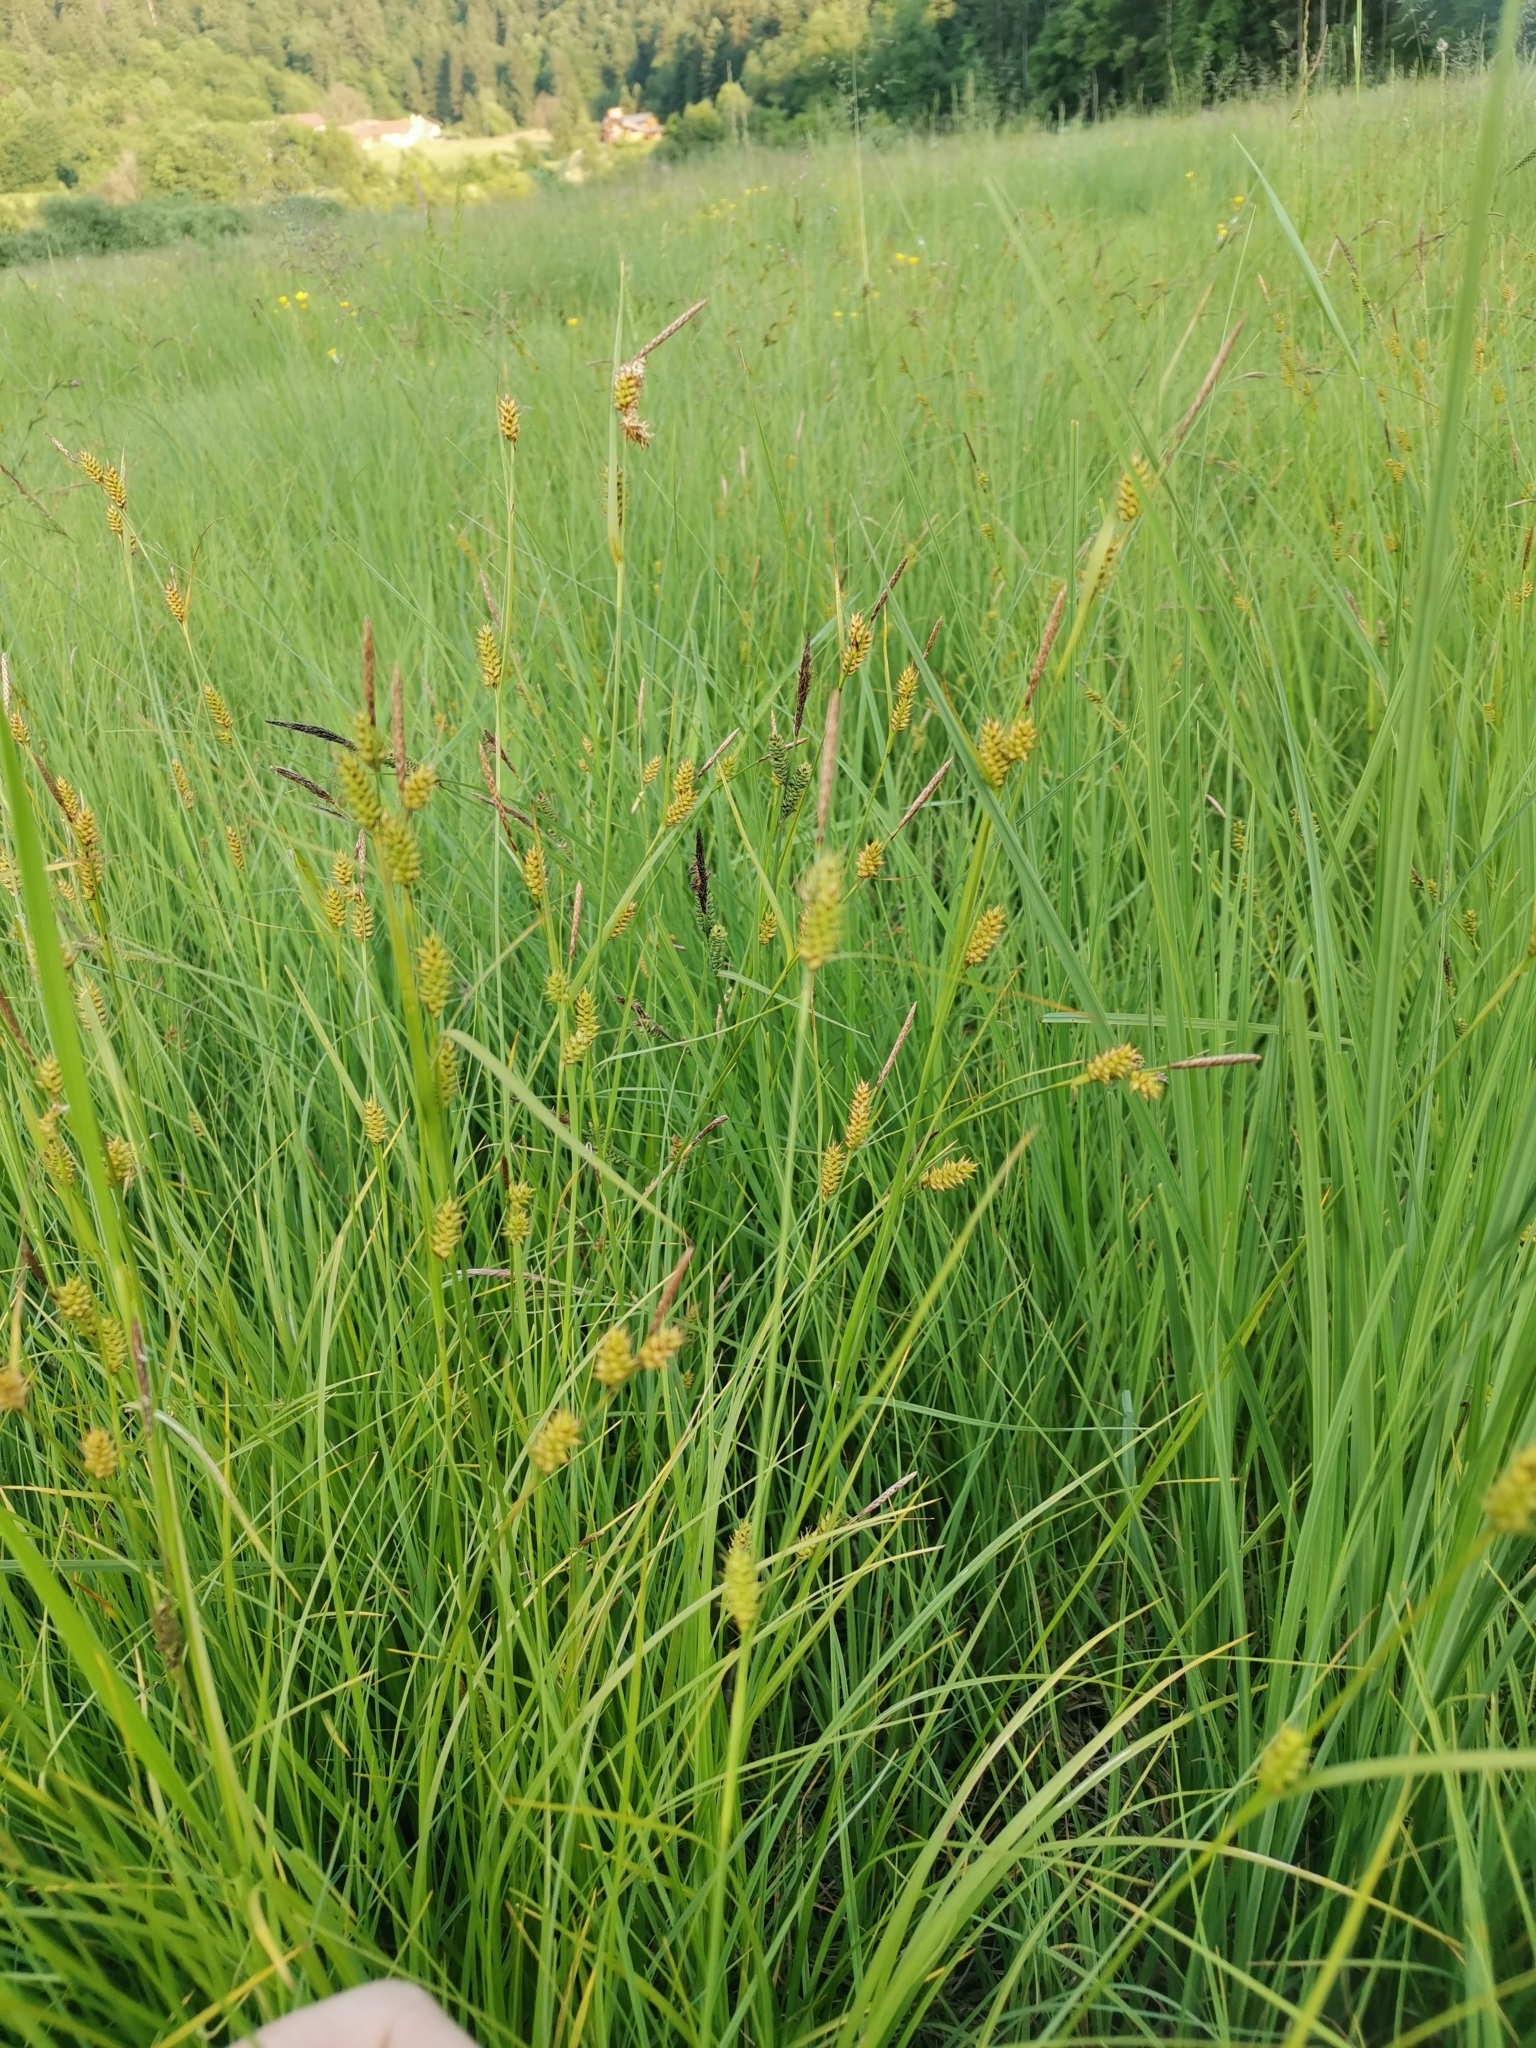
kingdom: Plantae
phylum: Tracheophyta
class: Liliopsida
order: Poales
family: Cyperaceae
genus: Carex
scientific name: Carex leutzii
